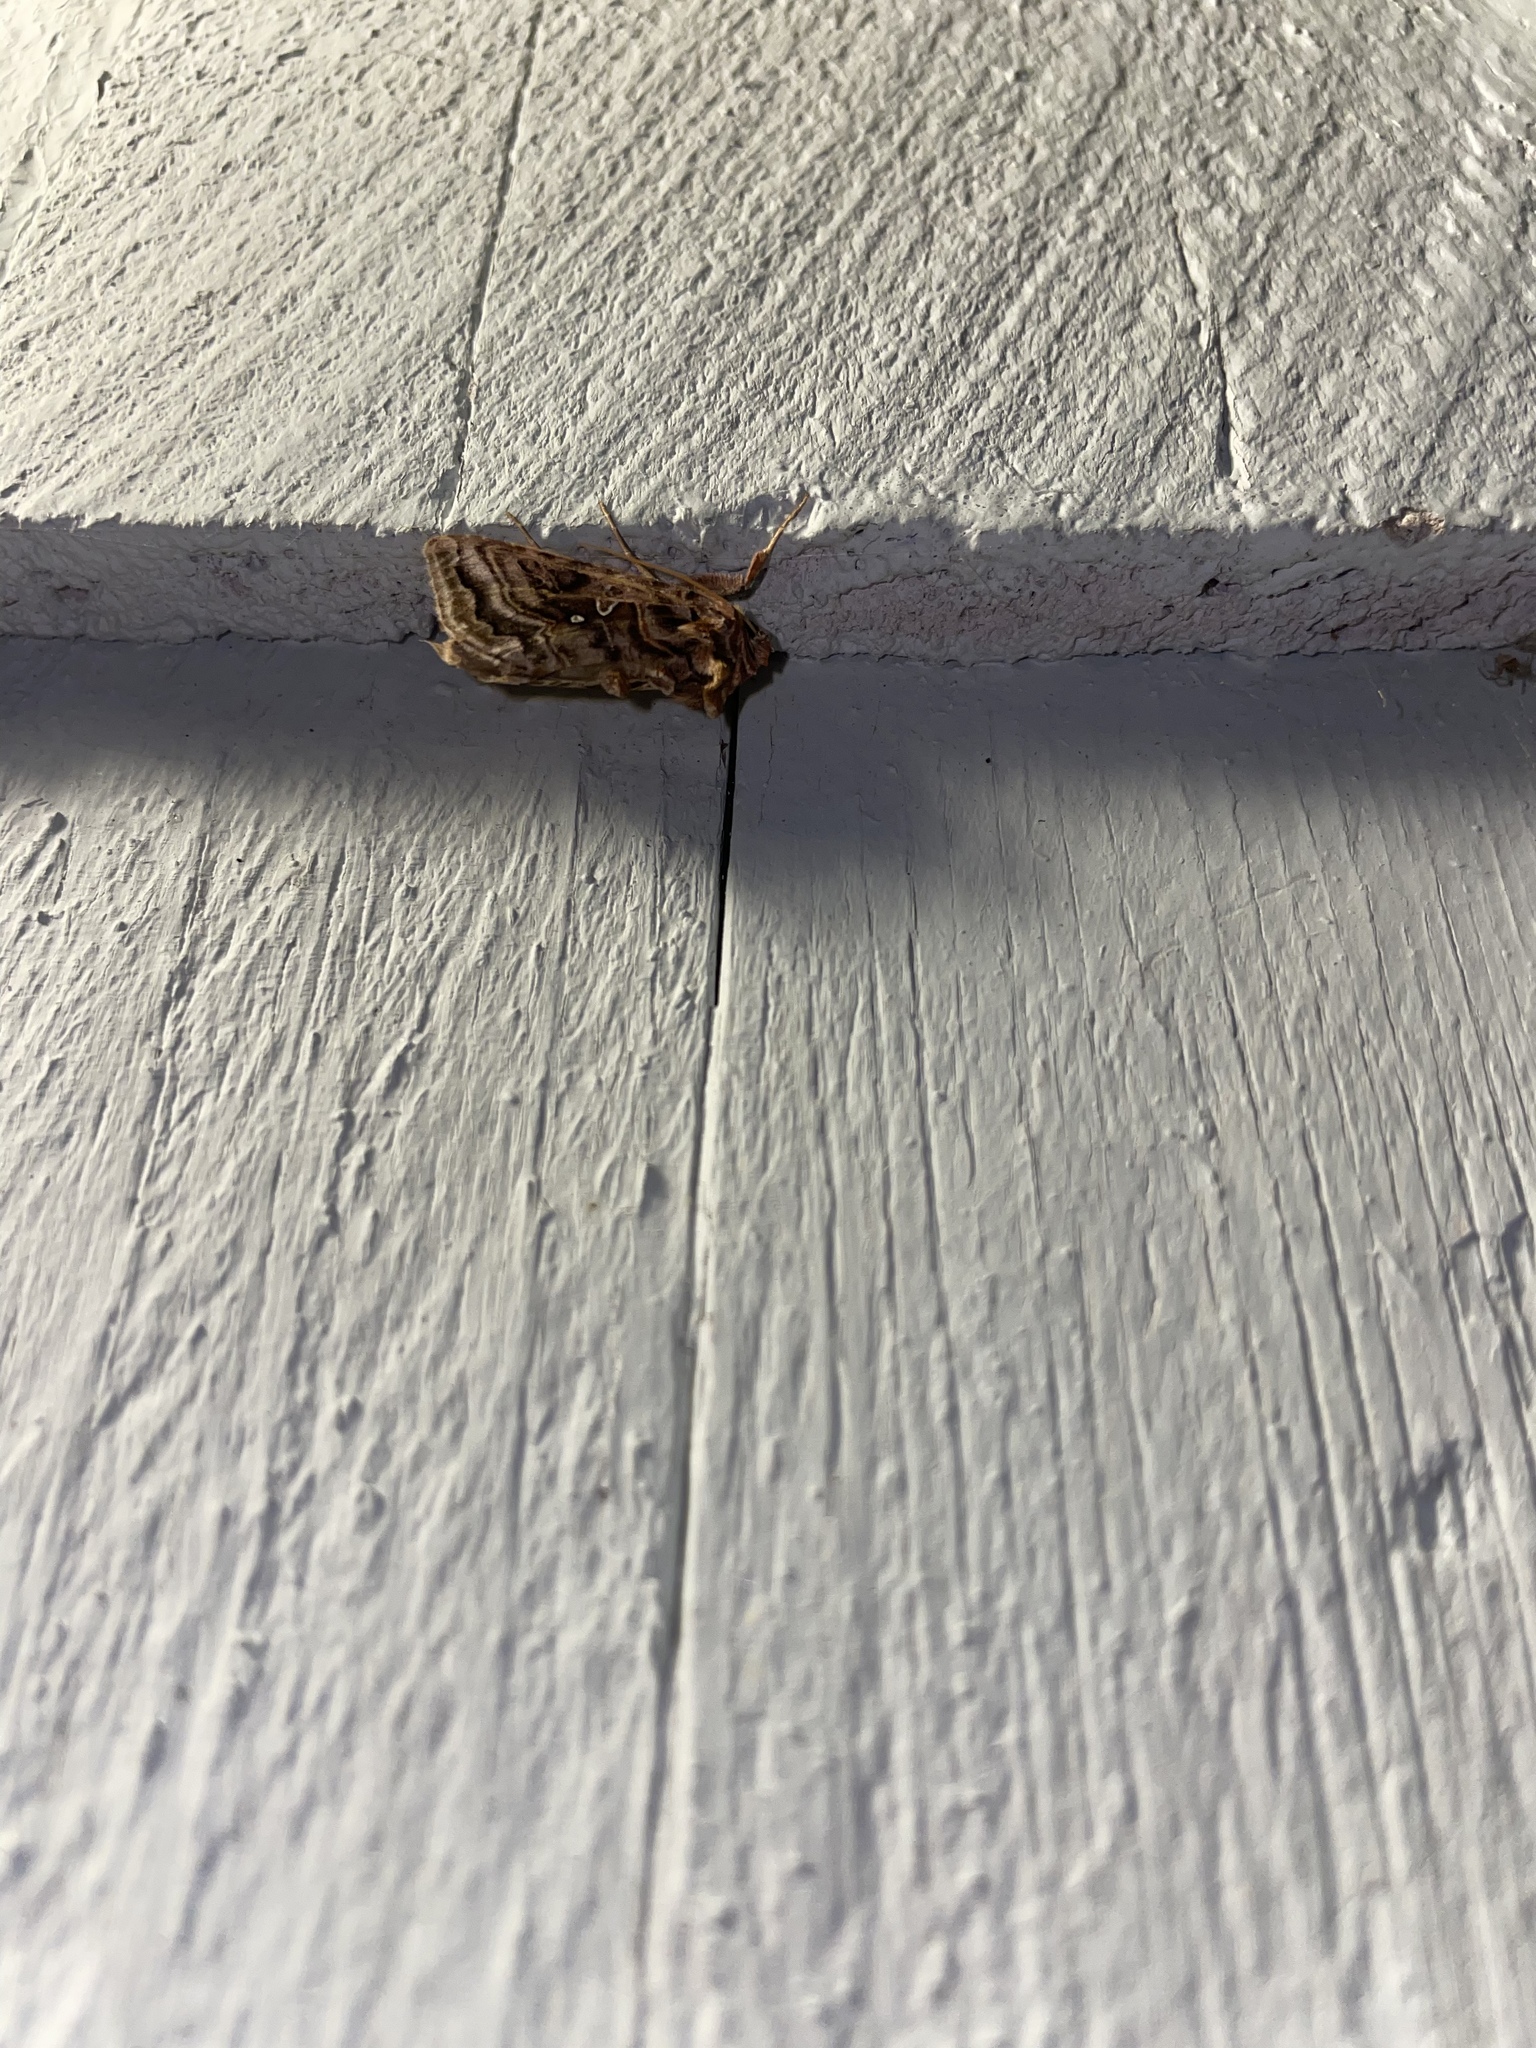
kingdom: Animalia
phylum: Arthropoda
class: Insecta
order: Lepidoptera
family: Noctuidae
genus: Autographa
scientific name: Autographa mappa
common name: Wavy chestnut y moth
